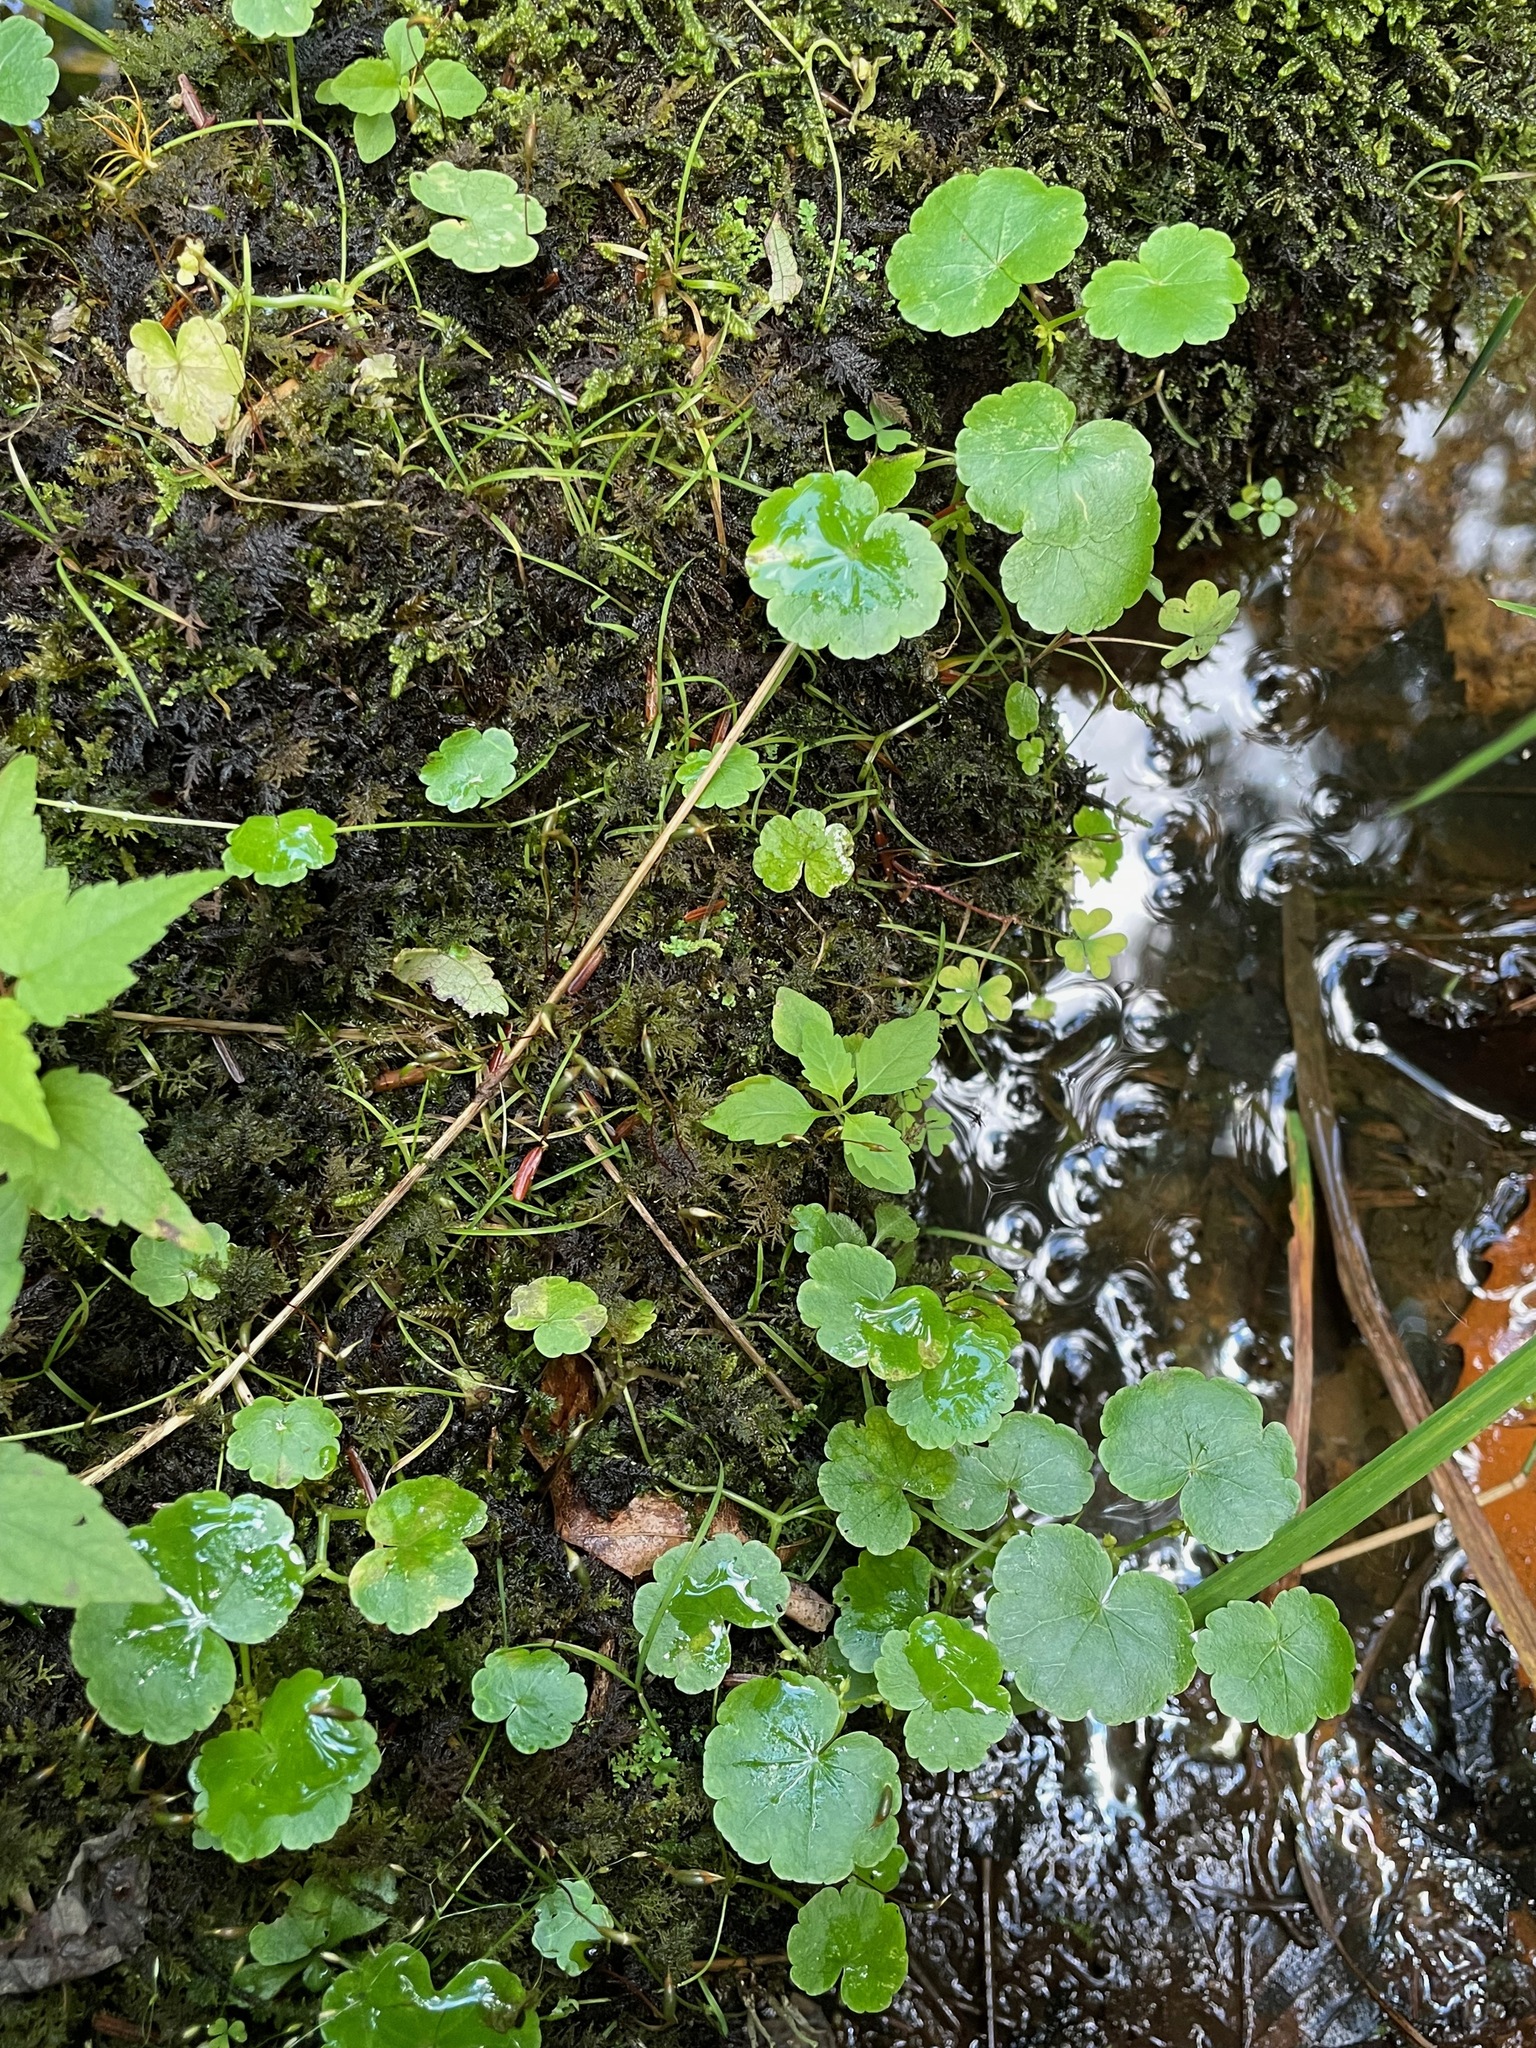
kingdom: Plantae
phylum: Tracheophyta
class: Magnoliopsida
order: Apiales
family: Araliaceae
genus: Hydrocotyle
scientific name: Hydrocotyle americana
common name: American water-pennywort
